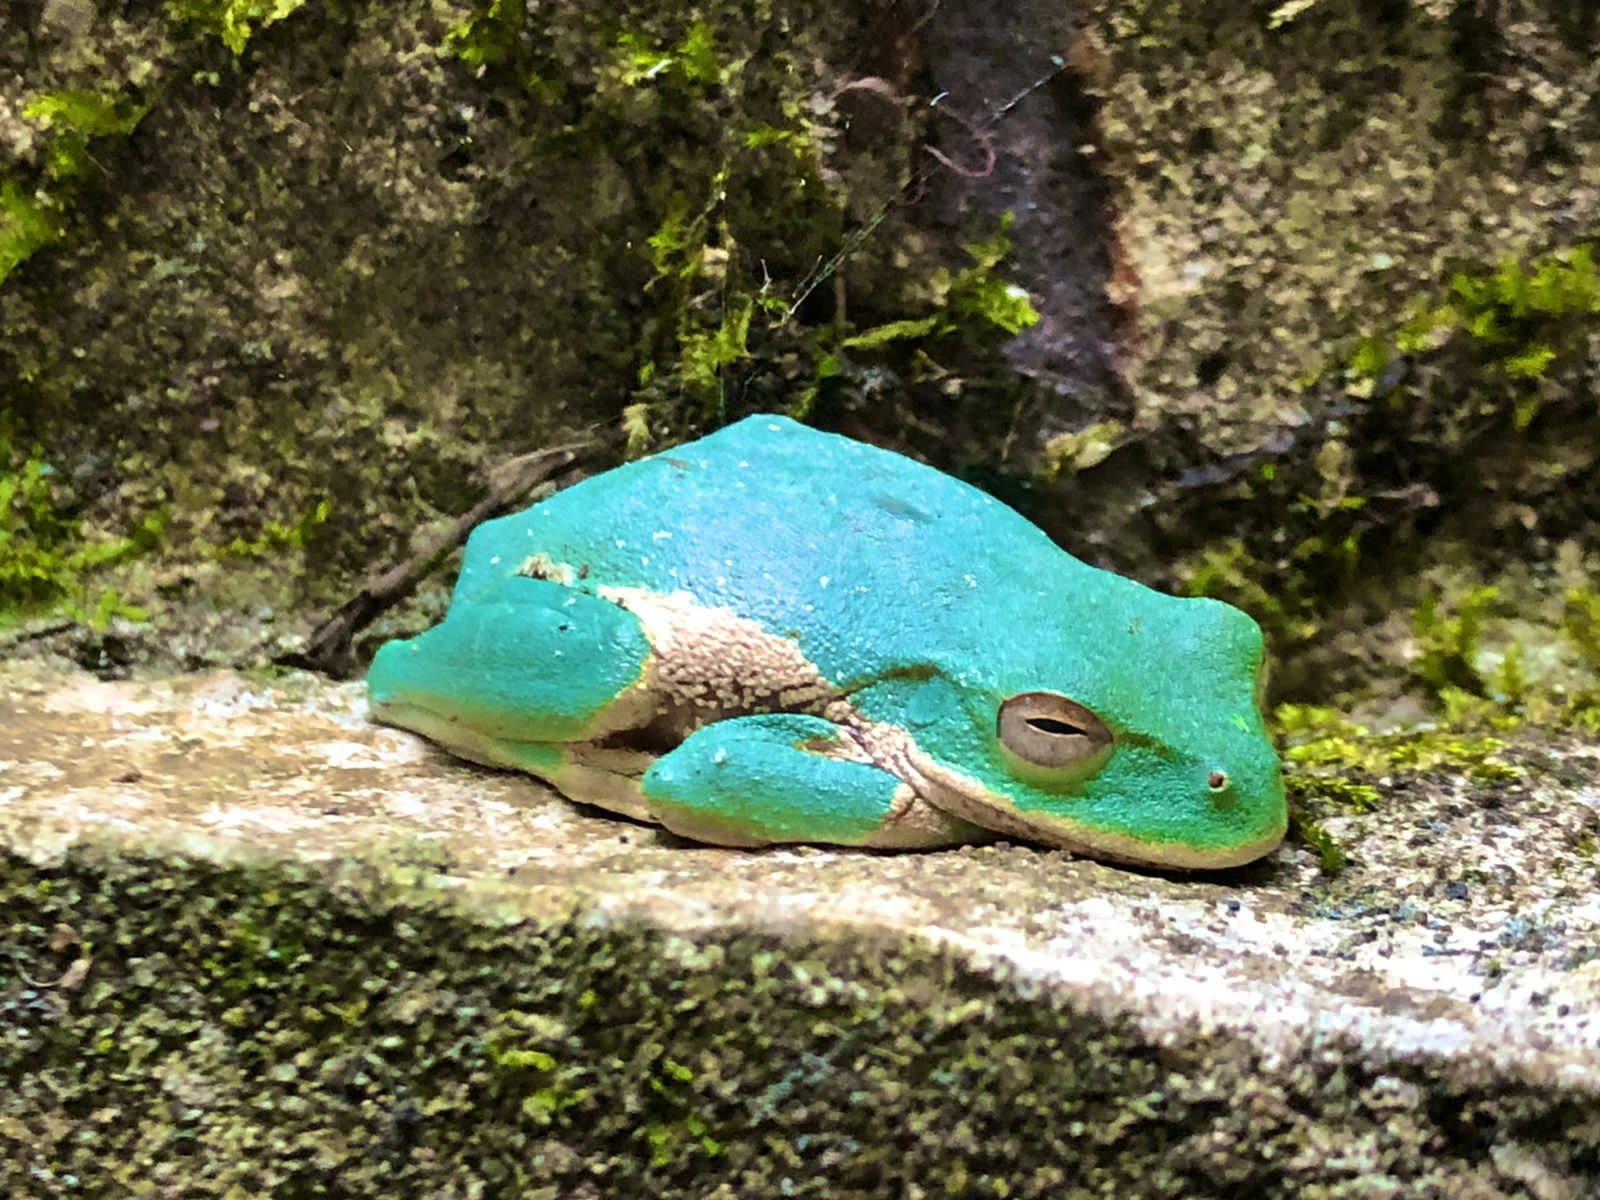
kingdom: Animalia
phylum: Chordata
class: Amphibia
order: Anura
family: Hylidae
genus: Rheohyla
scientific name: Rheohyla miotympanum
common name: Small-eard hyla
